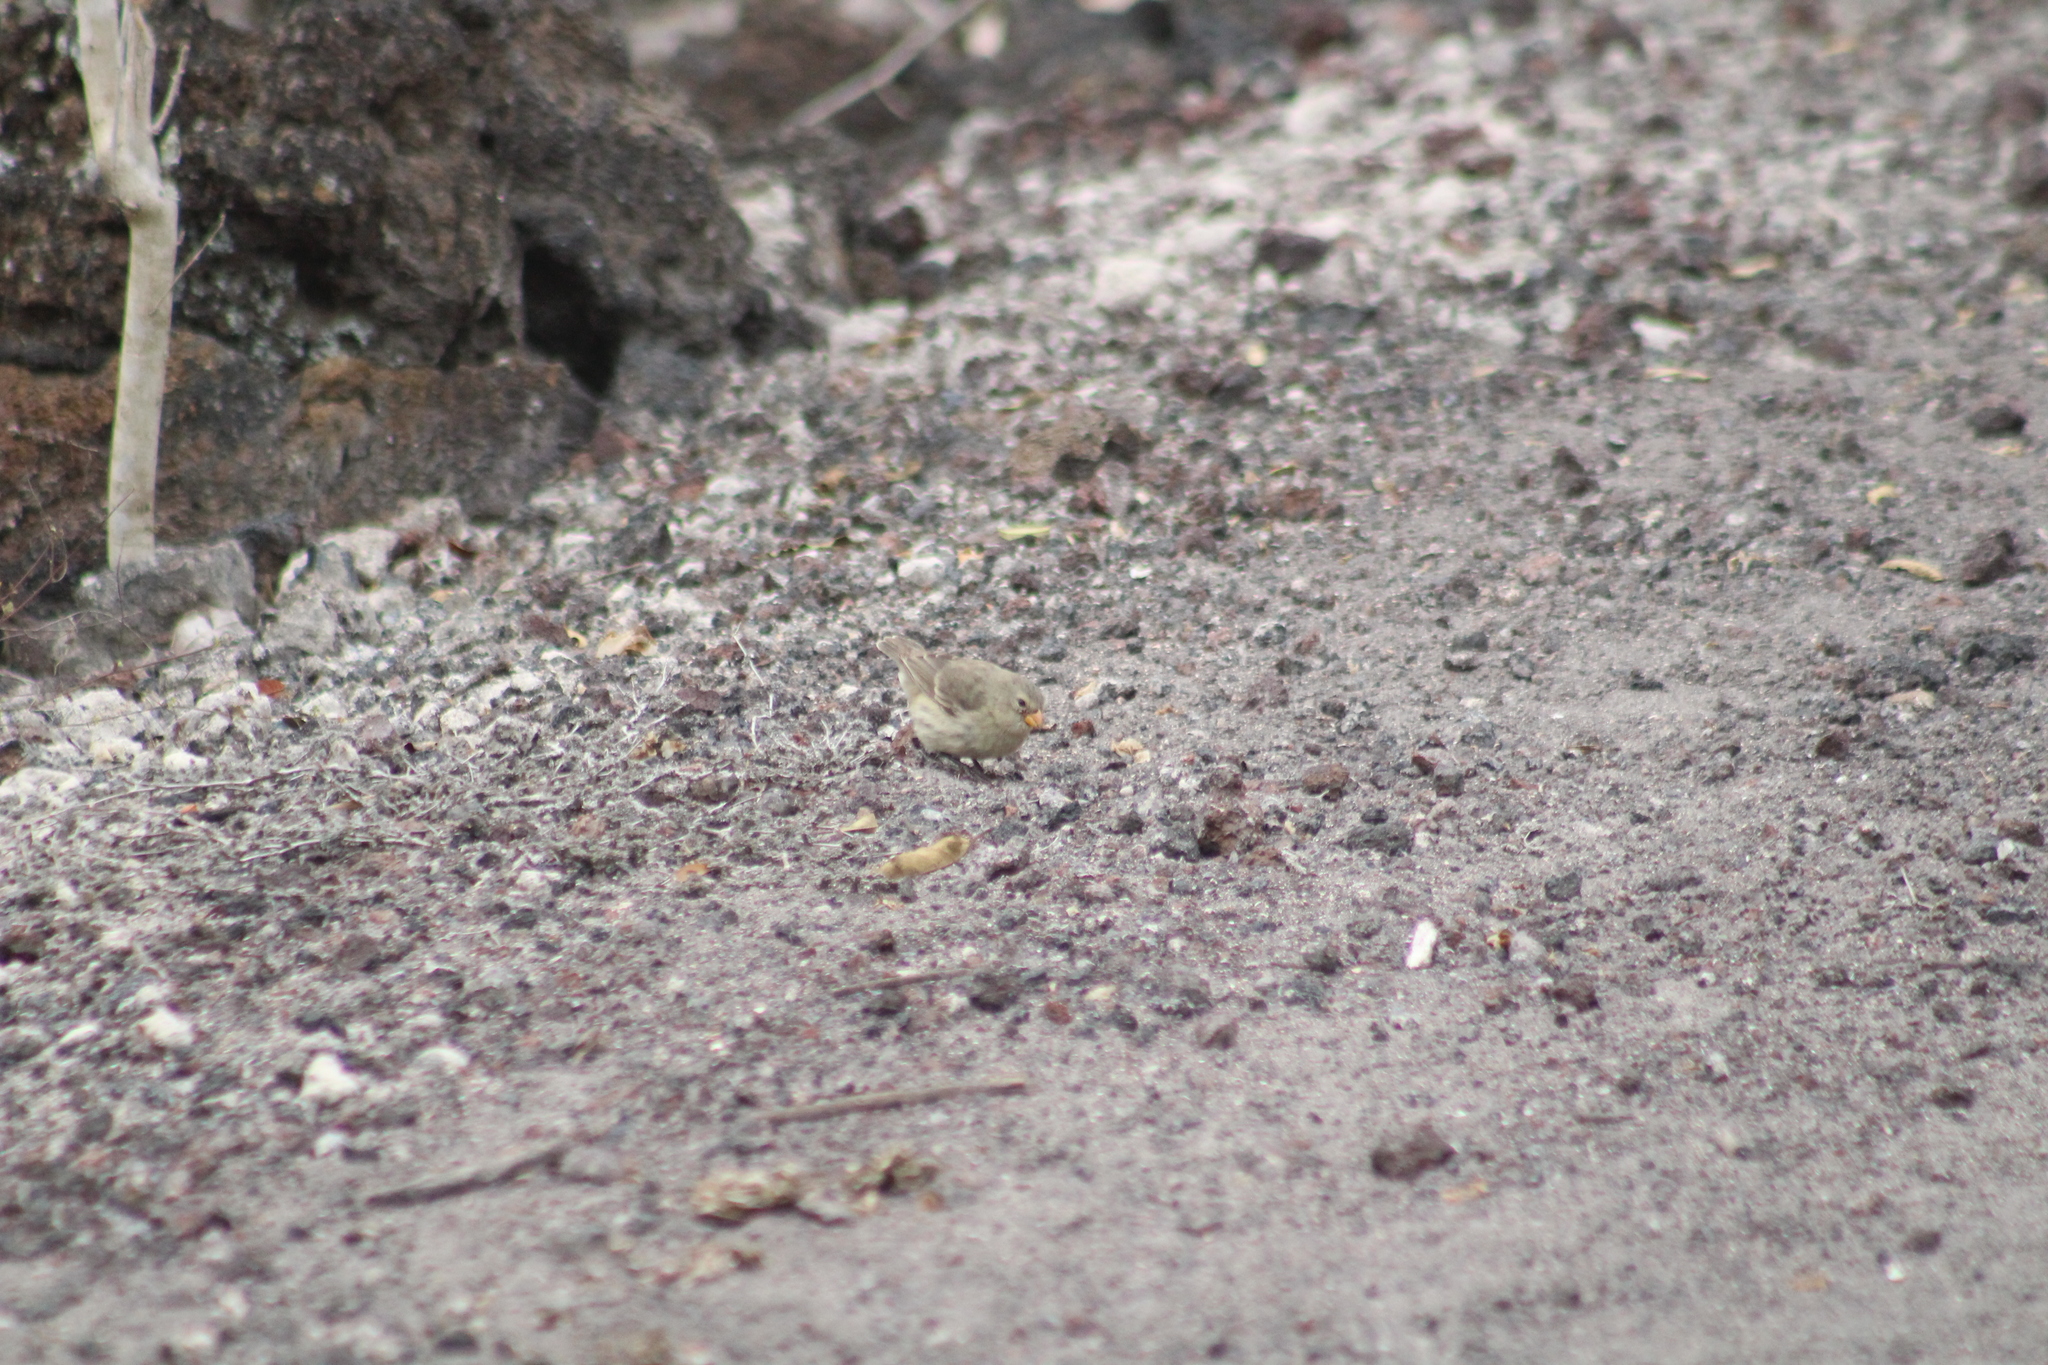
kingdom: Animalia
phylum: Chordata
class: Aves
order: Passeriformes
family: Thraupidae
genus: Camarhynchus
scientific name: Camarhynchus parvulus
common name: Small tree finch
